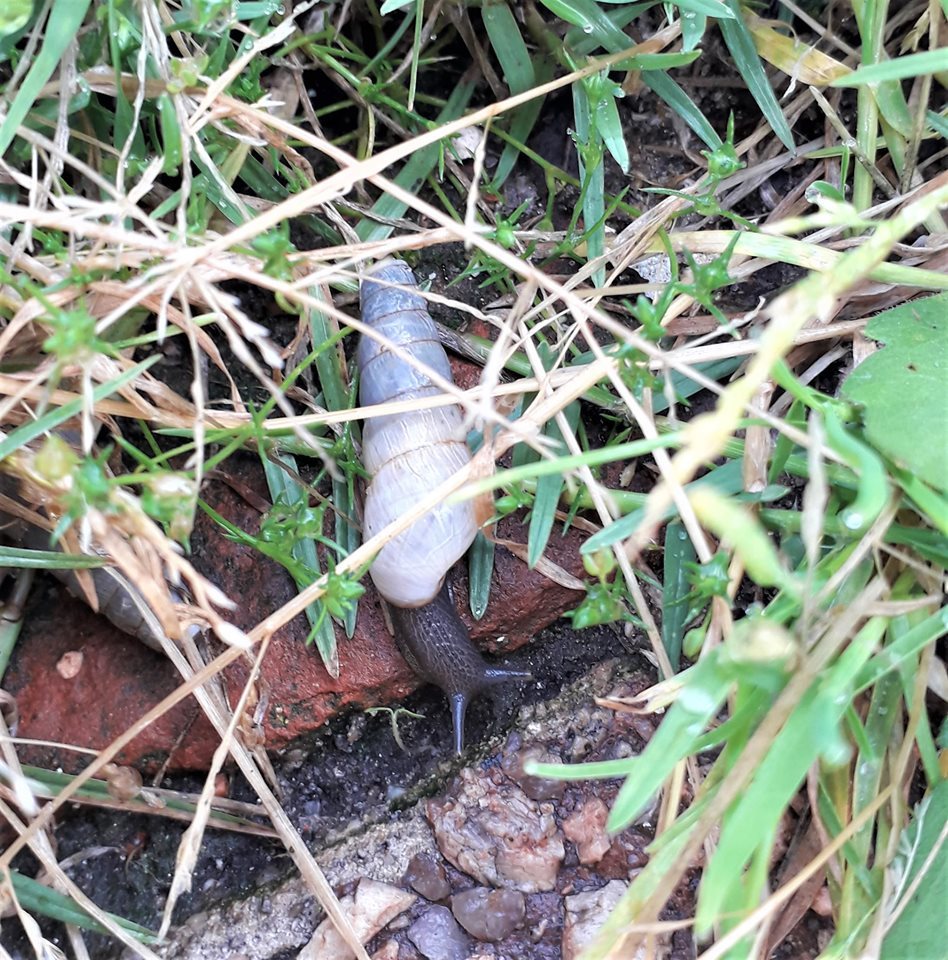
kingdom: Animalia
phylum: Mollusca
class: Gastropoda
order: Stylommatophora
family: Achatinidae
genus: Rumina
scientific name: Rumina decollata
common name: Decollate snail
